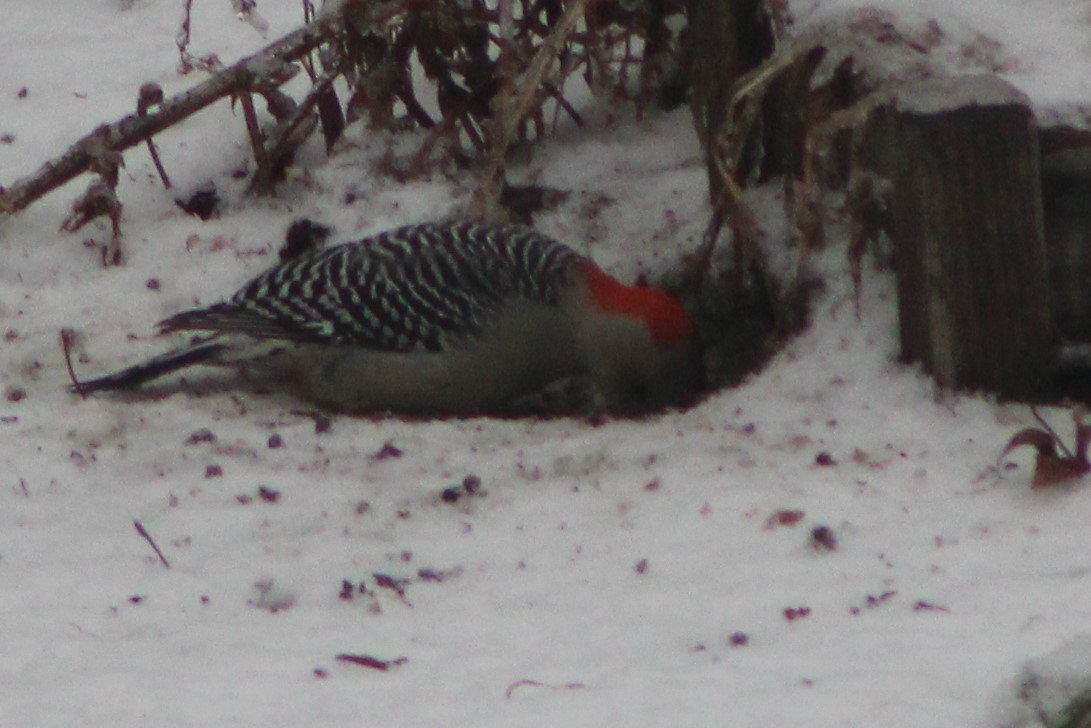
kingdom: Animalia
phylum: Chordata
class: Aves
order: Piciformes
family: Picidae
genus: Melanerpes
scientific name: Melanerpes carolinus
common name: Red-bellied woodpecker
